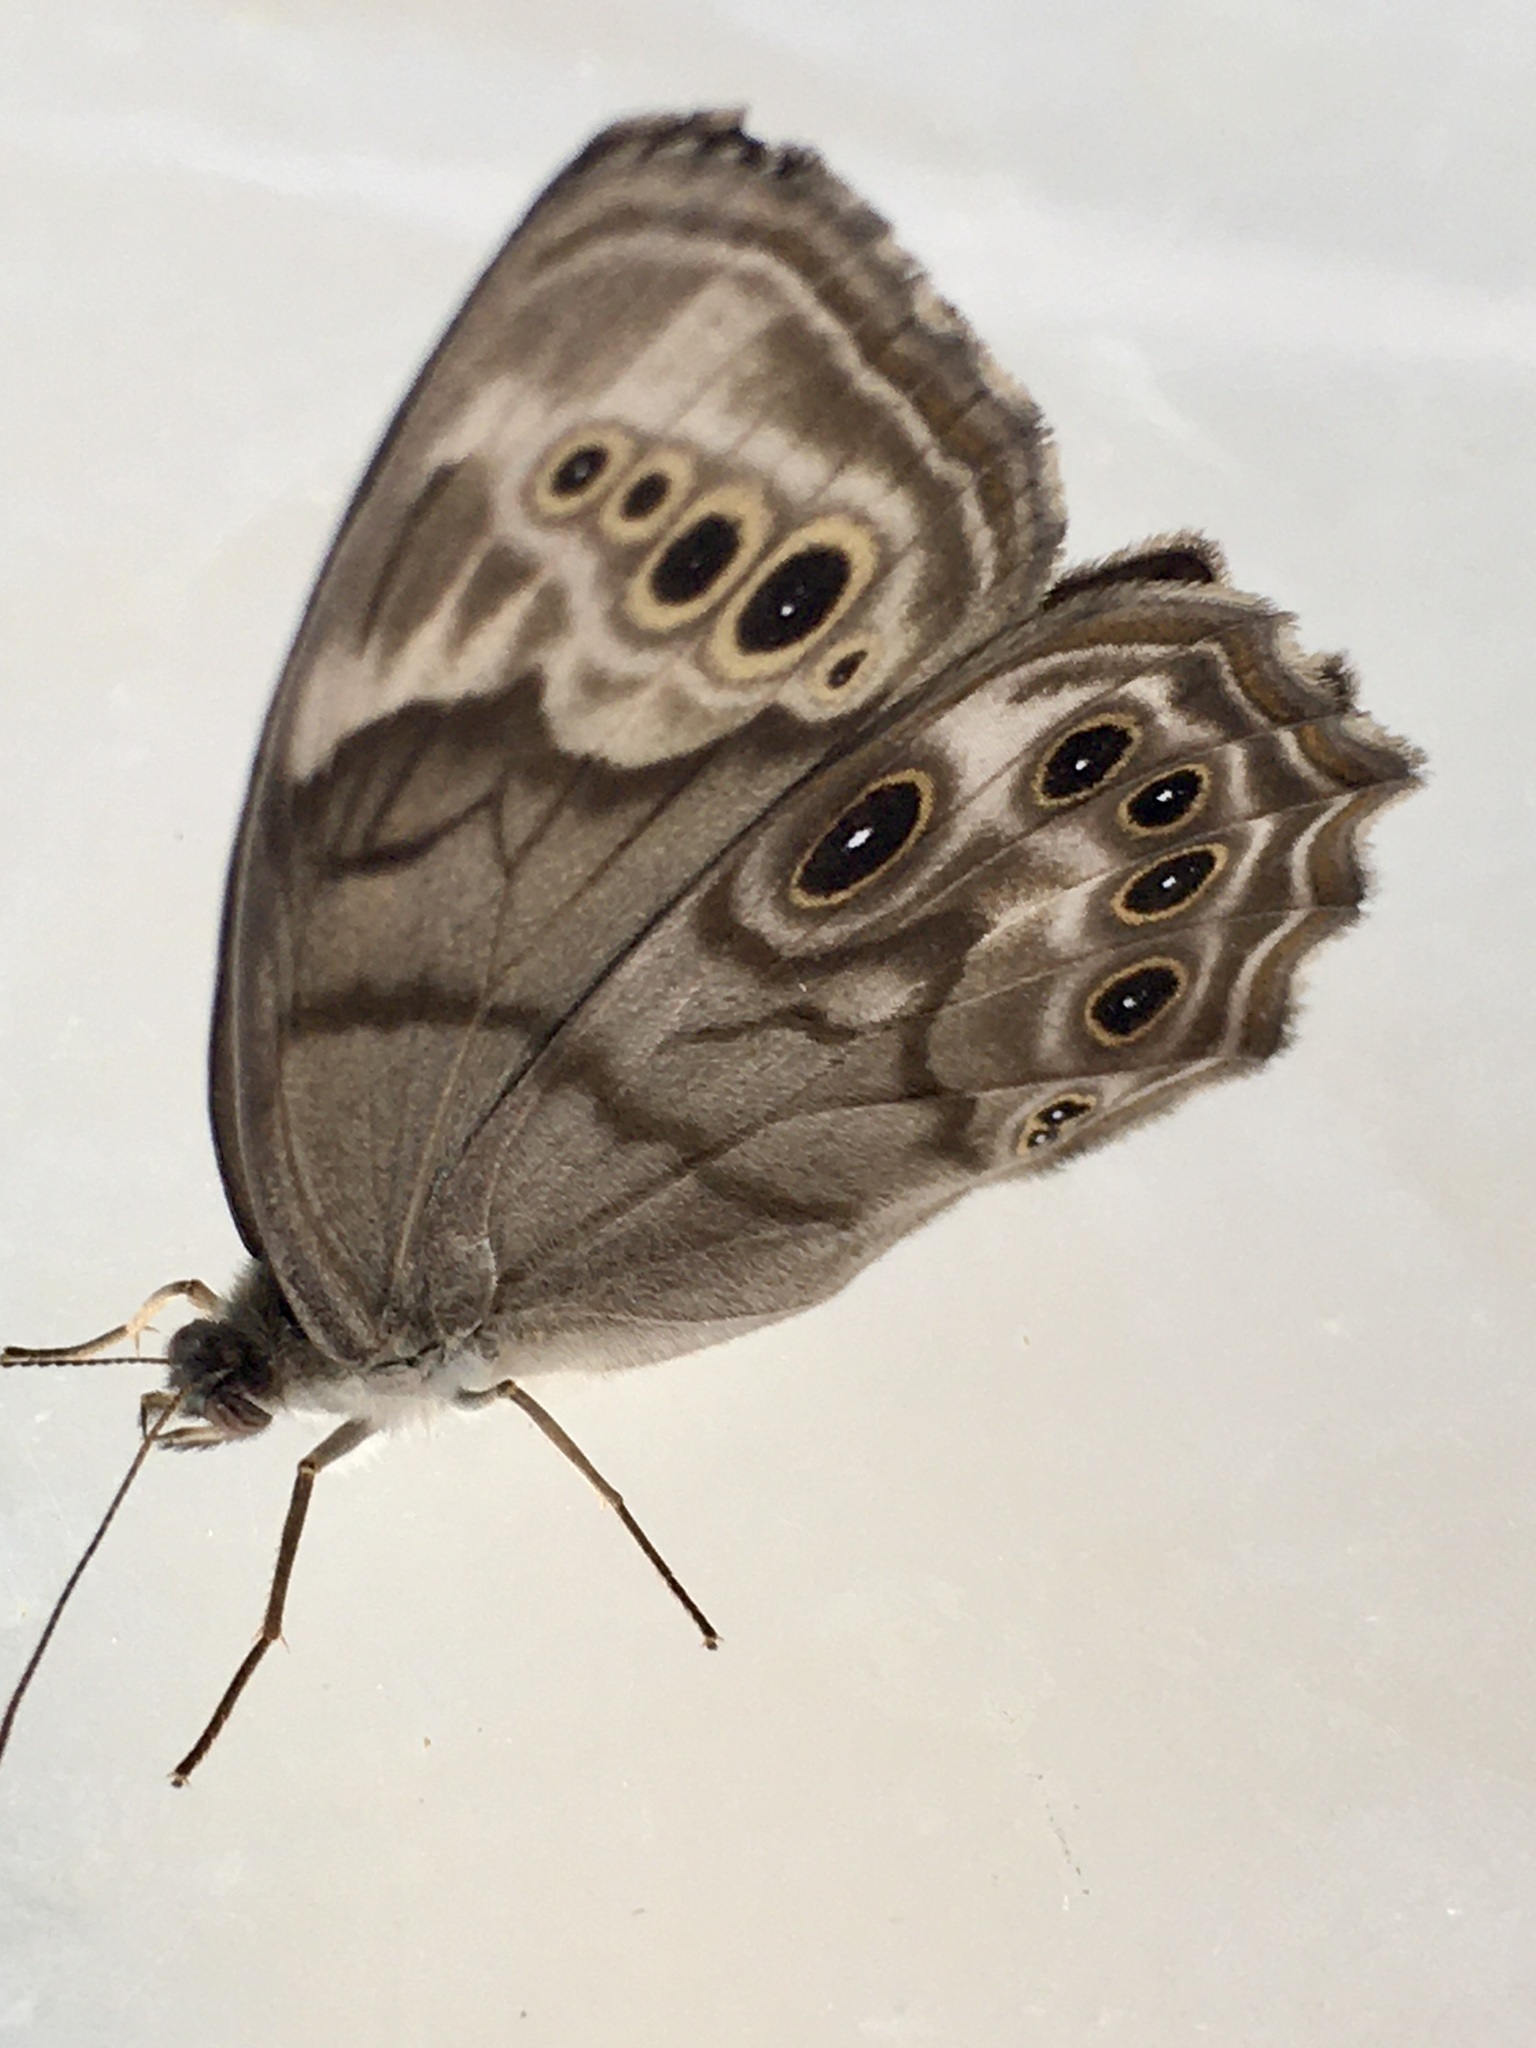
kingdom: Animalia
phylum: Arthropoda
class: Insecta
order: Lepidoptera
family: Nymphalidae
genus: Lethe
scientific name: Lethe anthedon
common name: Northern pearly-eye
